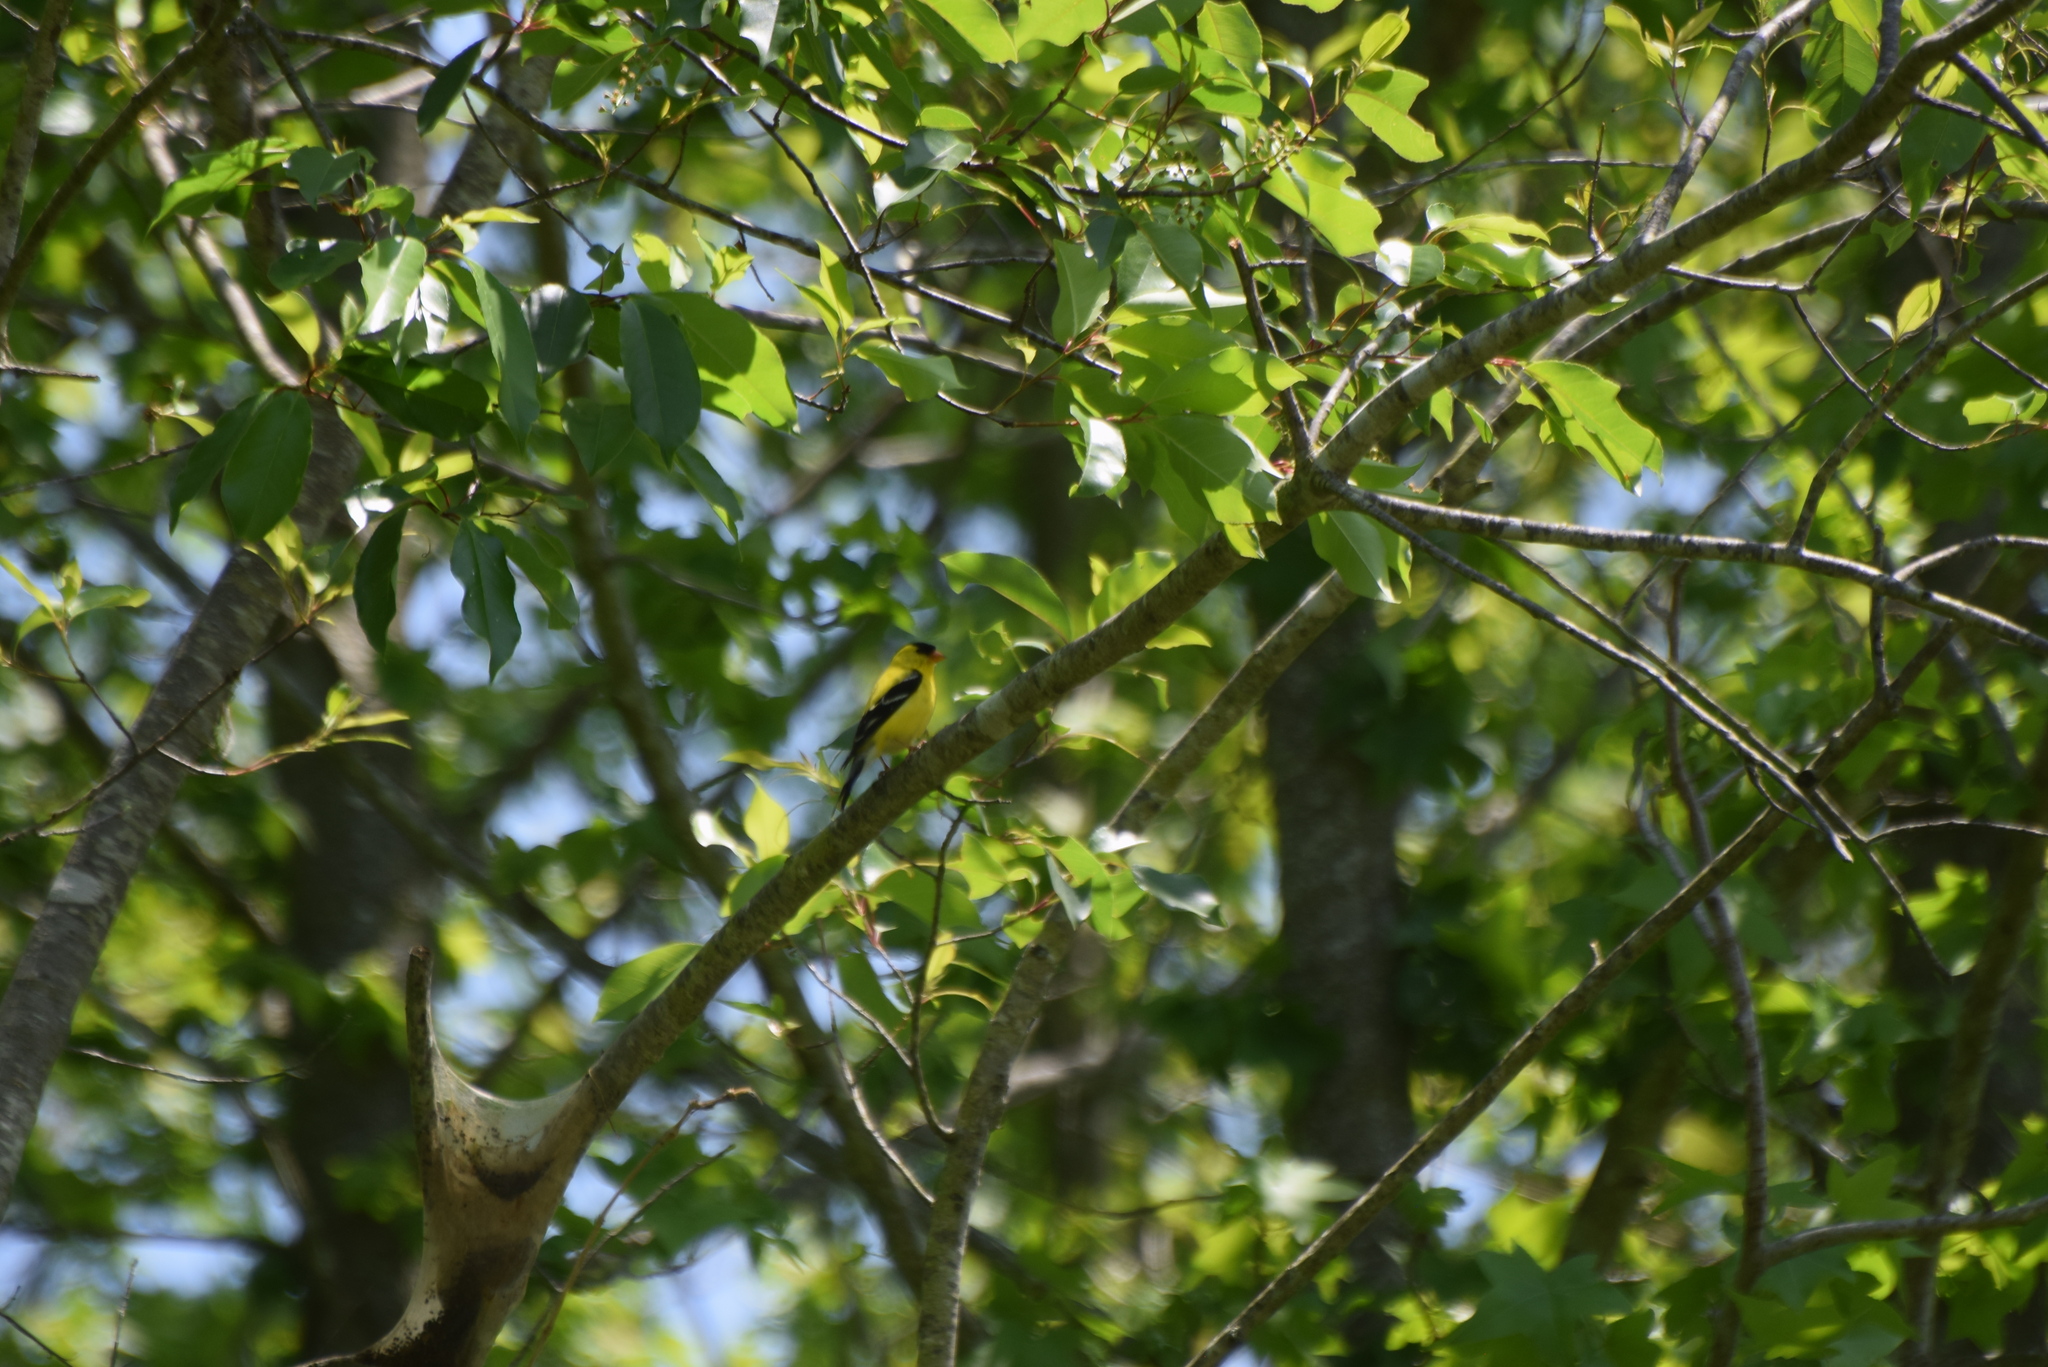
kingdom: Animalia
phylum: Chordata
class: Aves
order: Passeriformes
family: Fringillidae
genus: Spinus
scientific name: Spinus tristis
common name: American goldfinch
